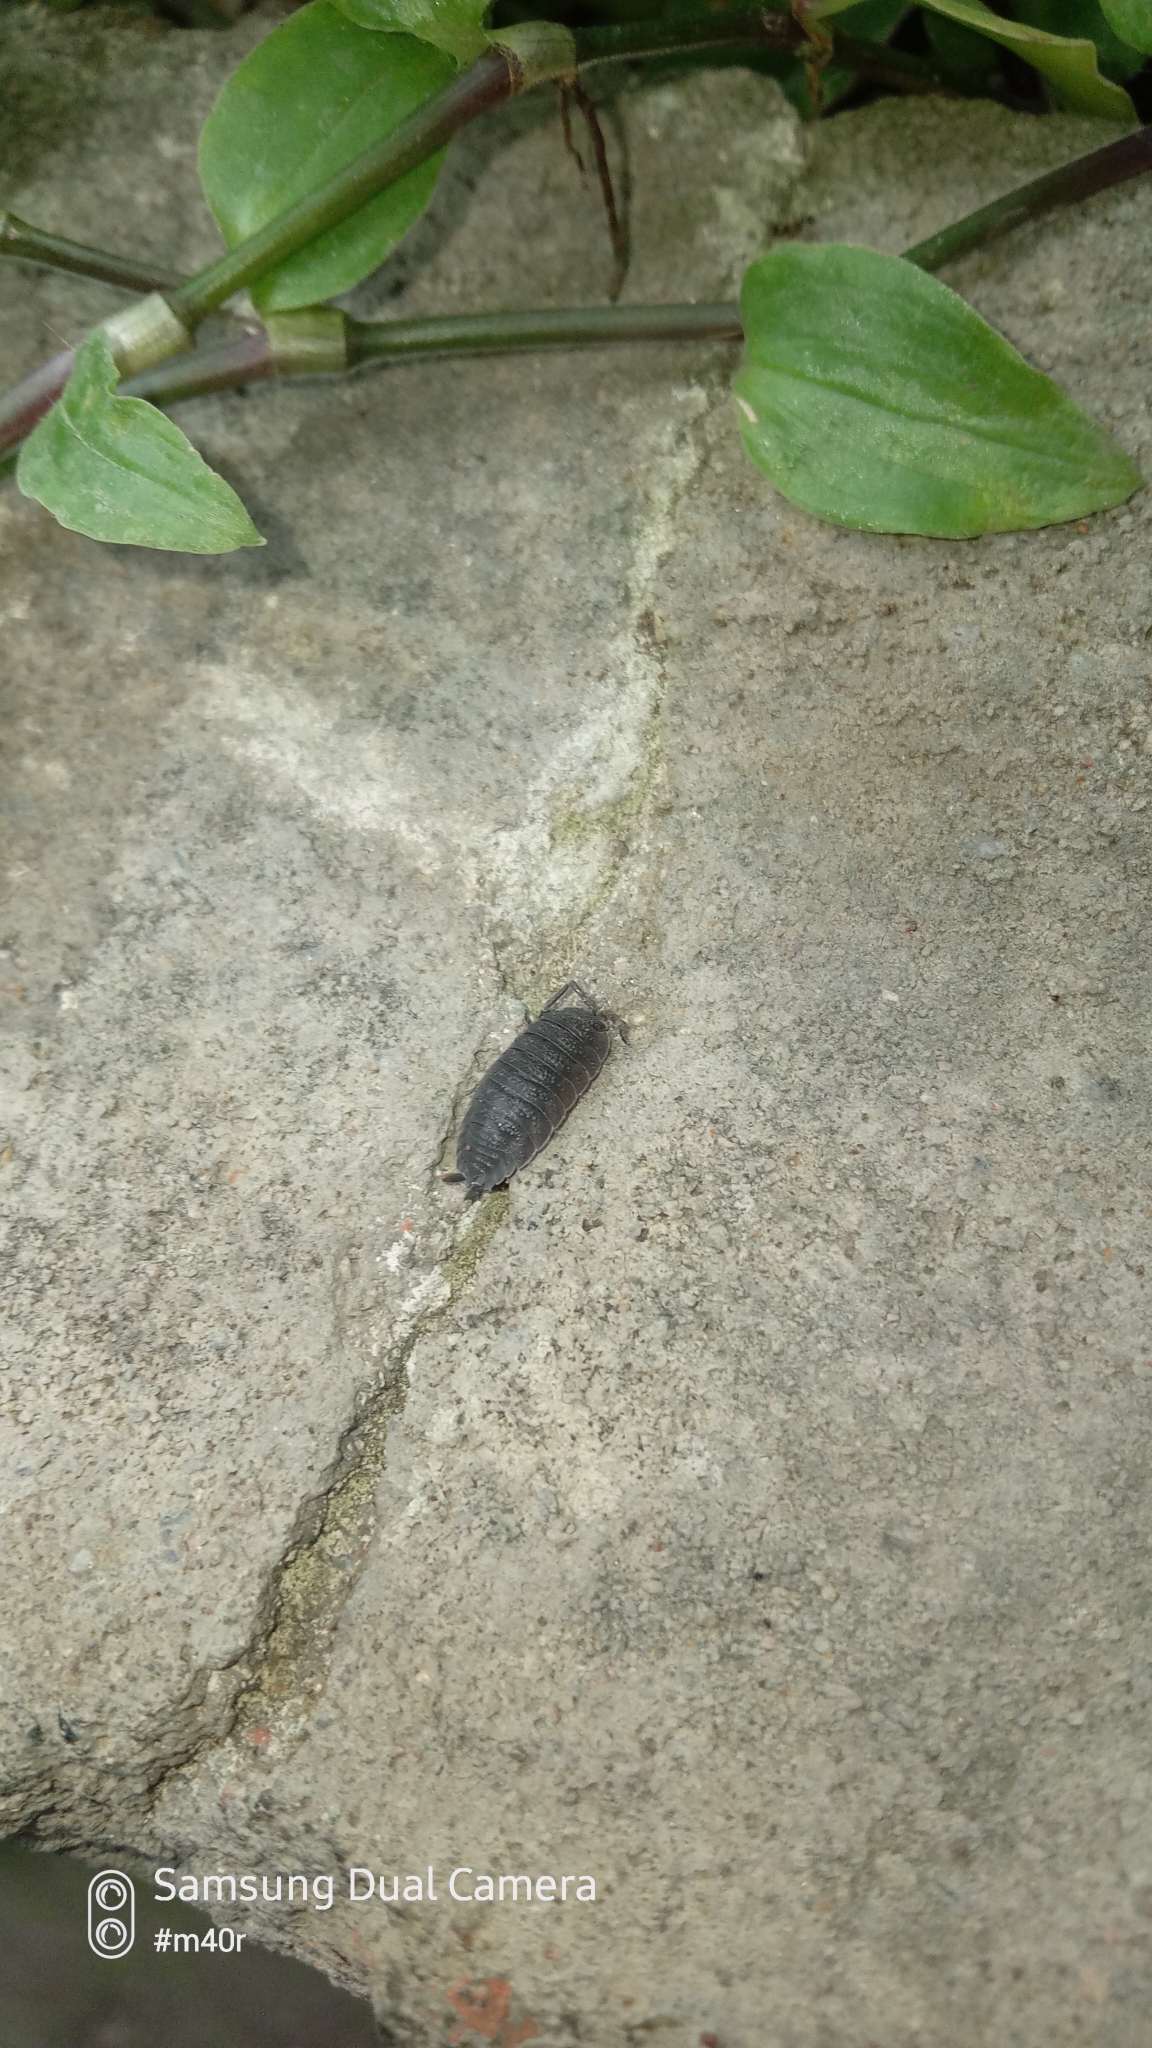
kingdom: Animalia
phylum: Arthropoda
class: Malacostraca
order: Isopoda
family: Porcellionidae
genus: Porcellio
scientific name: Porcellio scaber
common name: Common rough woodlouse
